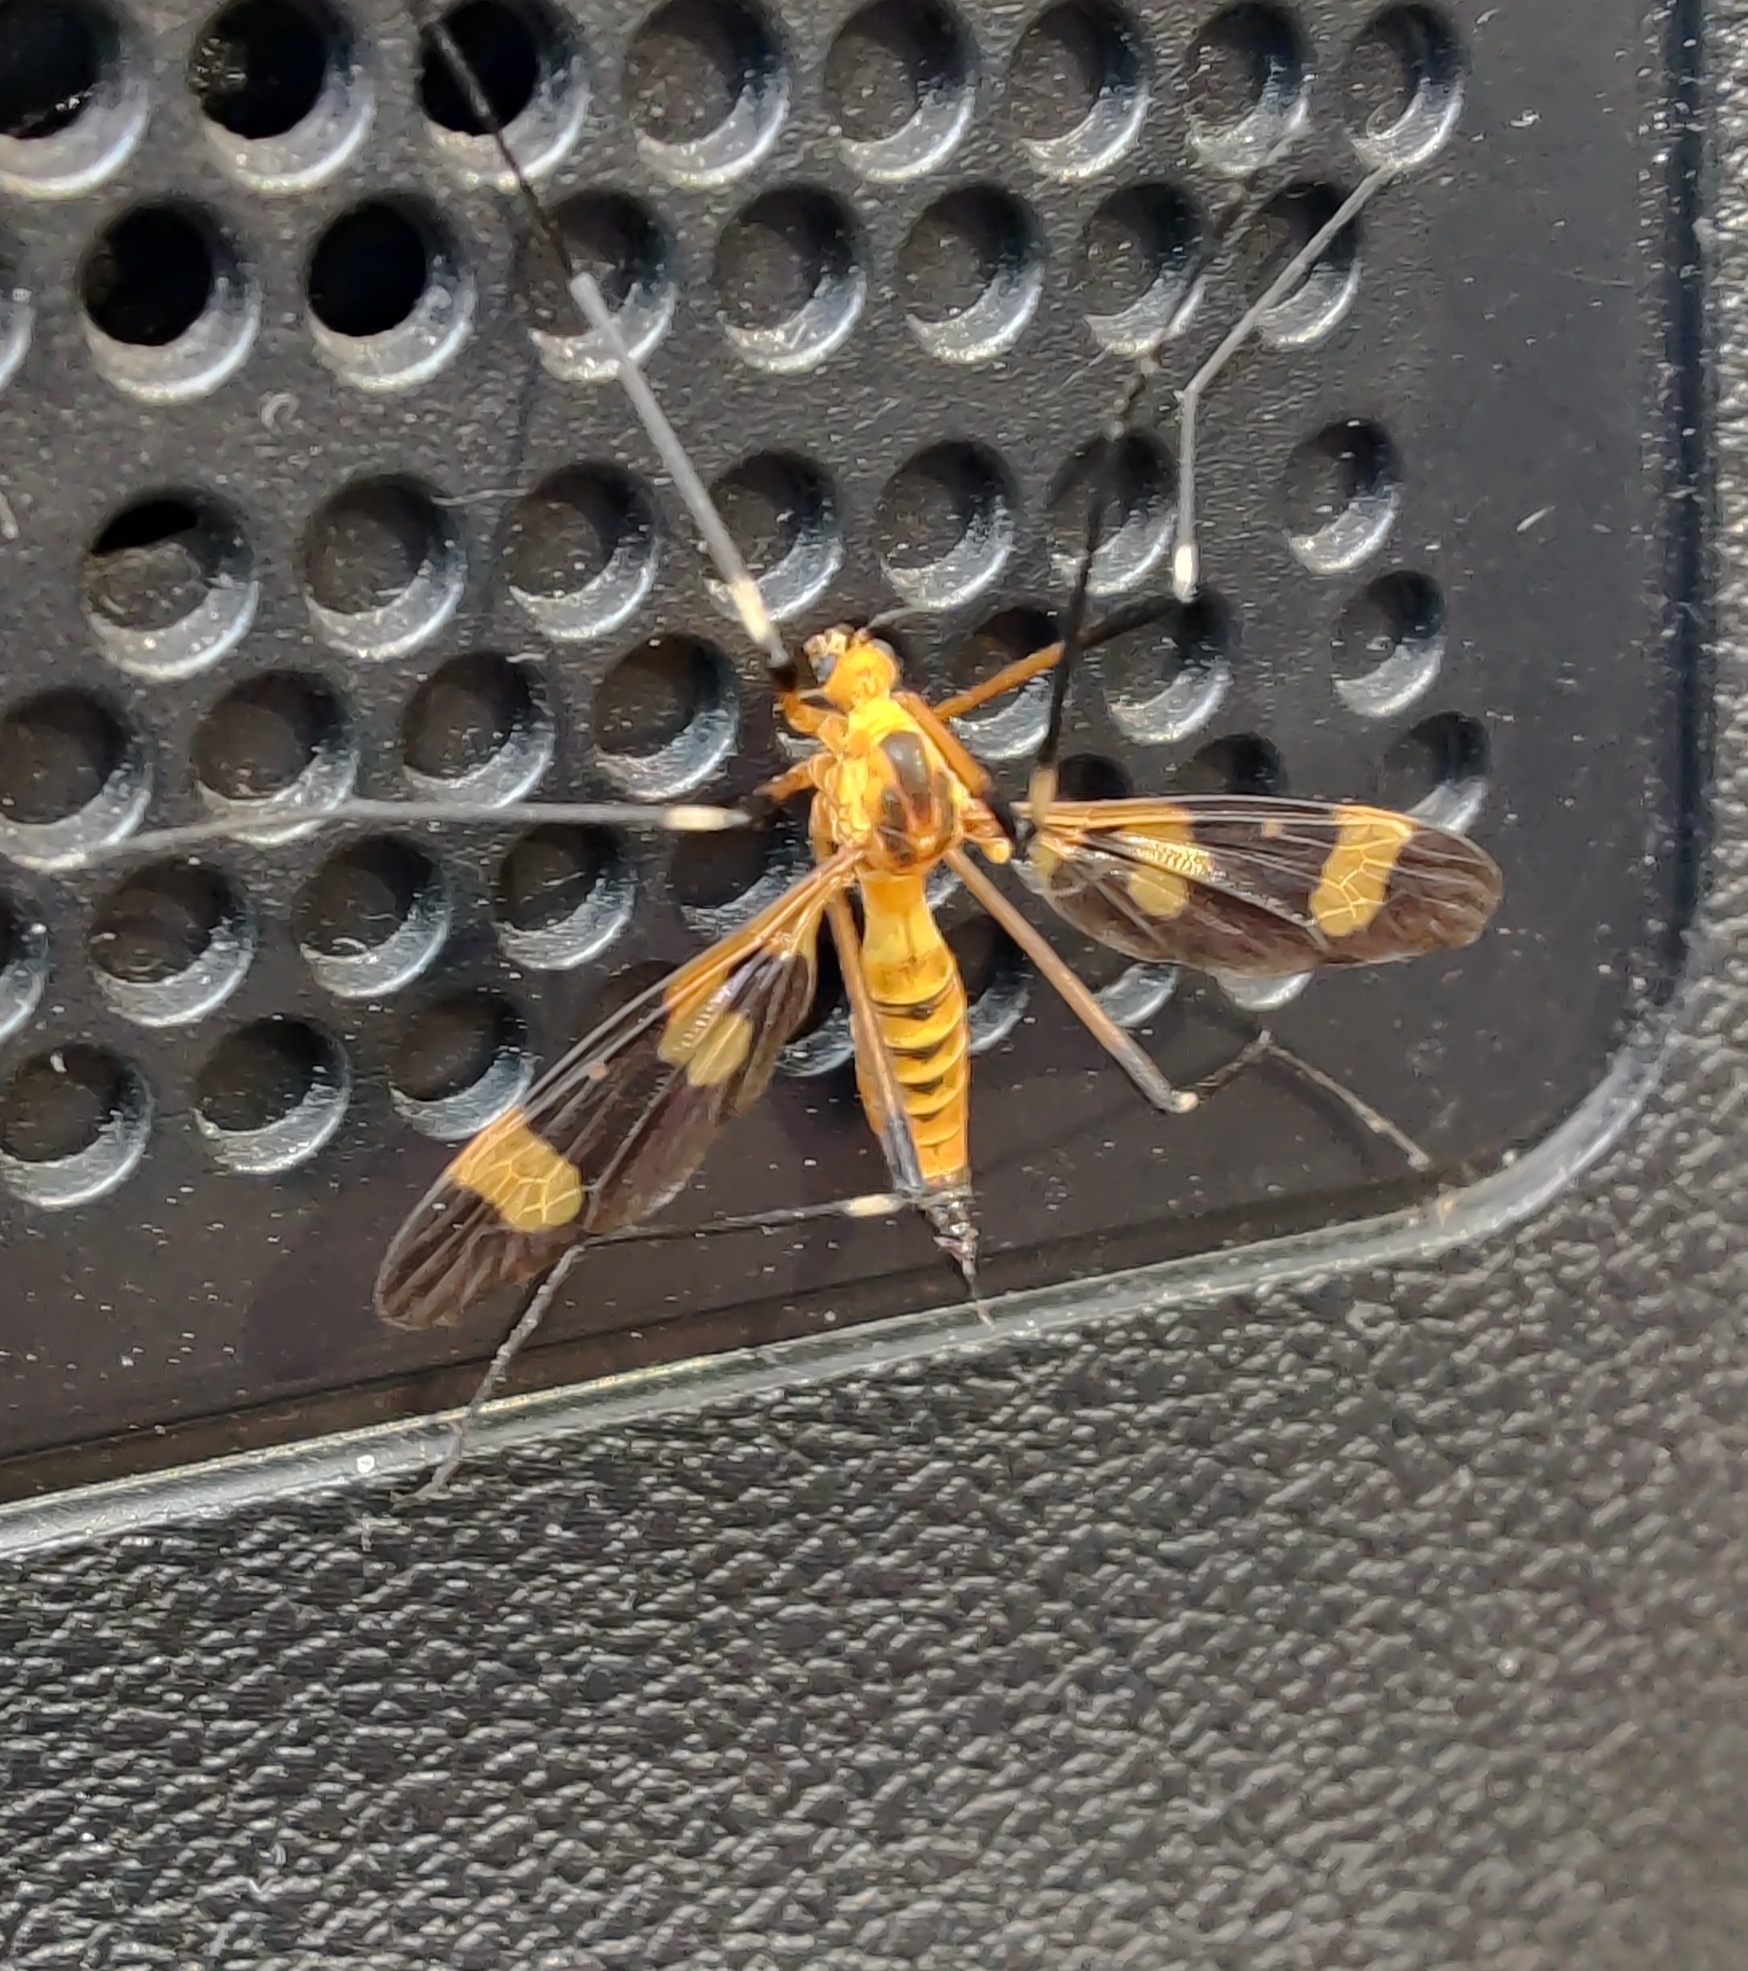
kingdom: Animalia
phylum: Arthropoda
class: Insecta
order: Diptera
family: Tipulidae
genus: Pselliophora
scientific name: Pselliophora laeta
